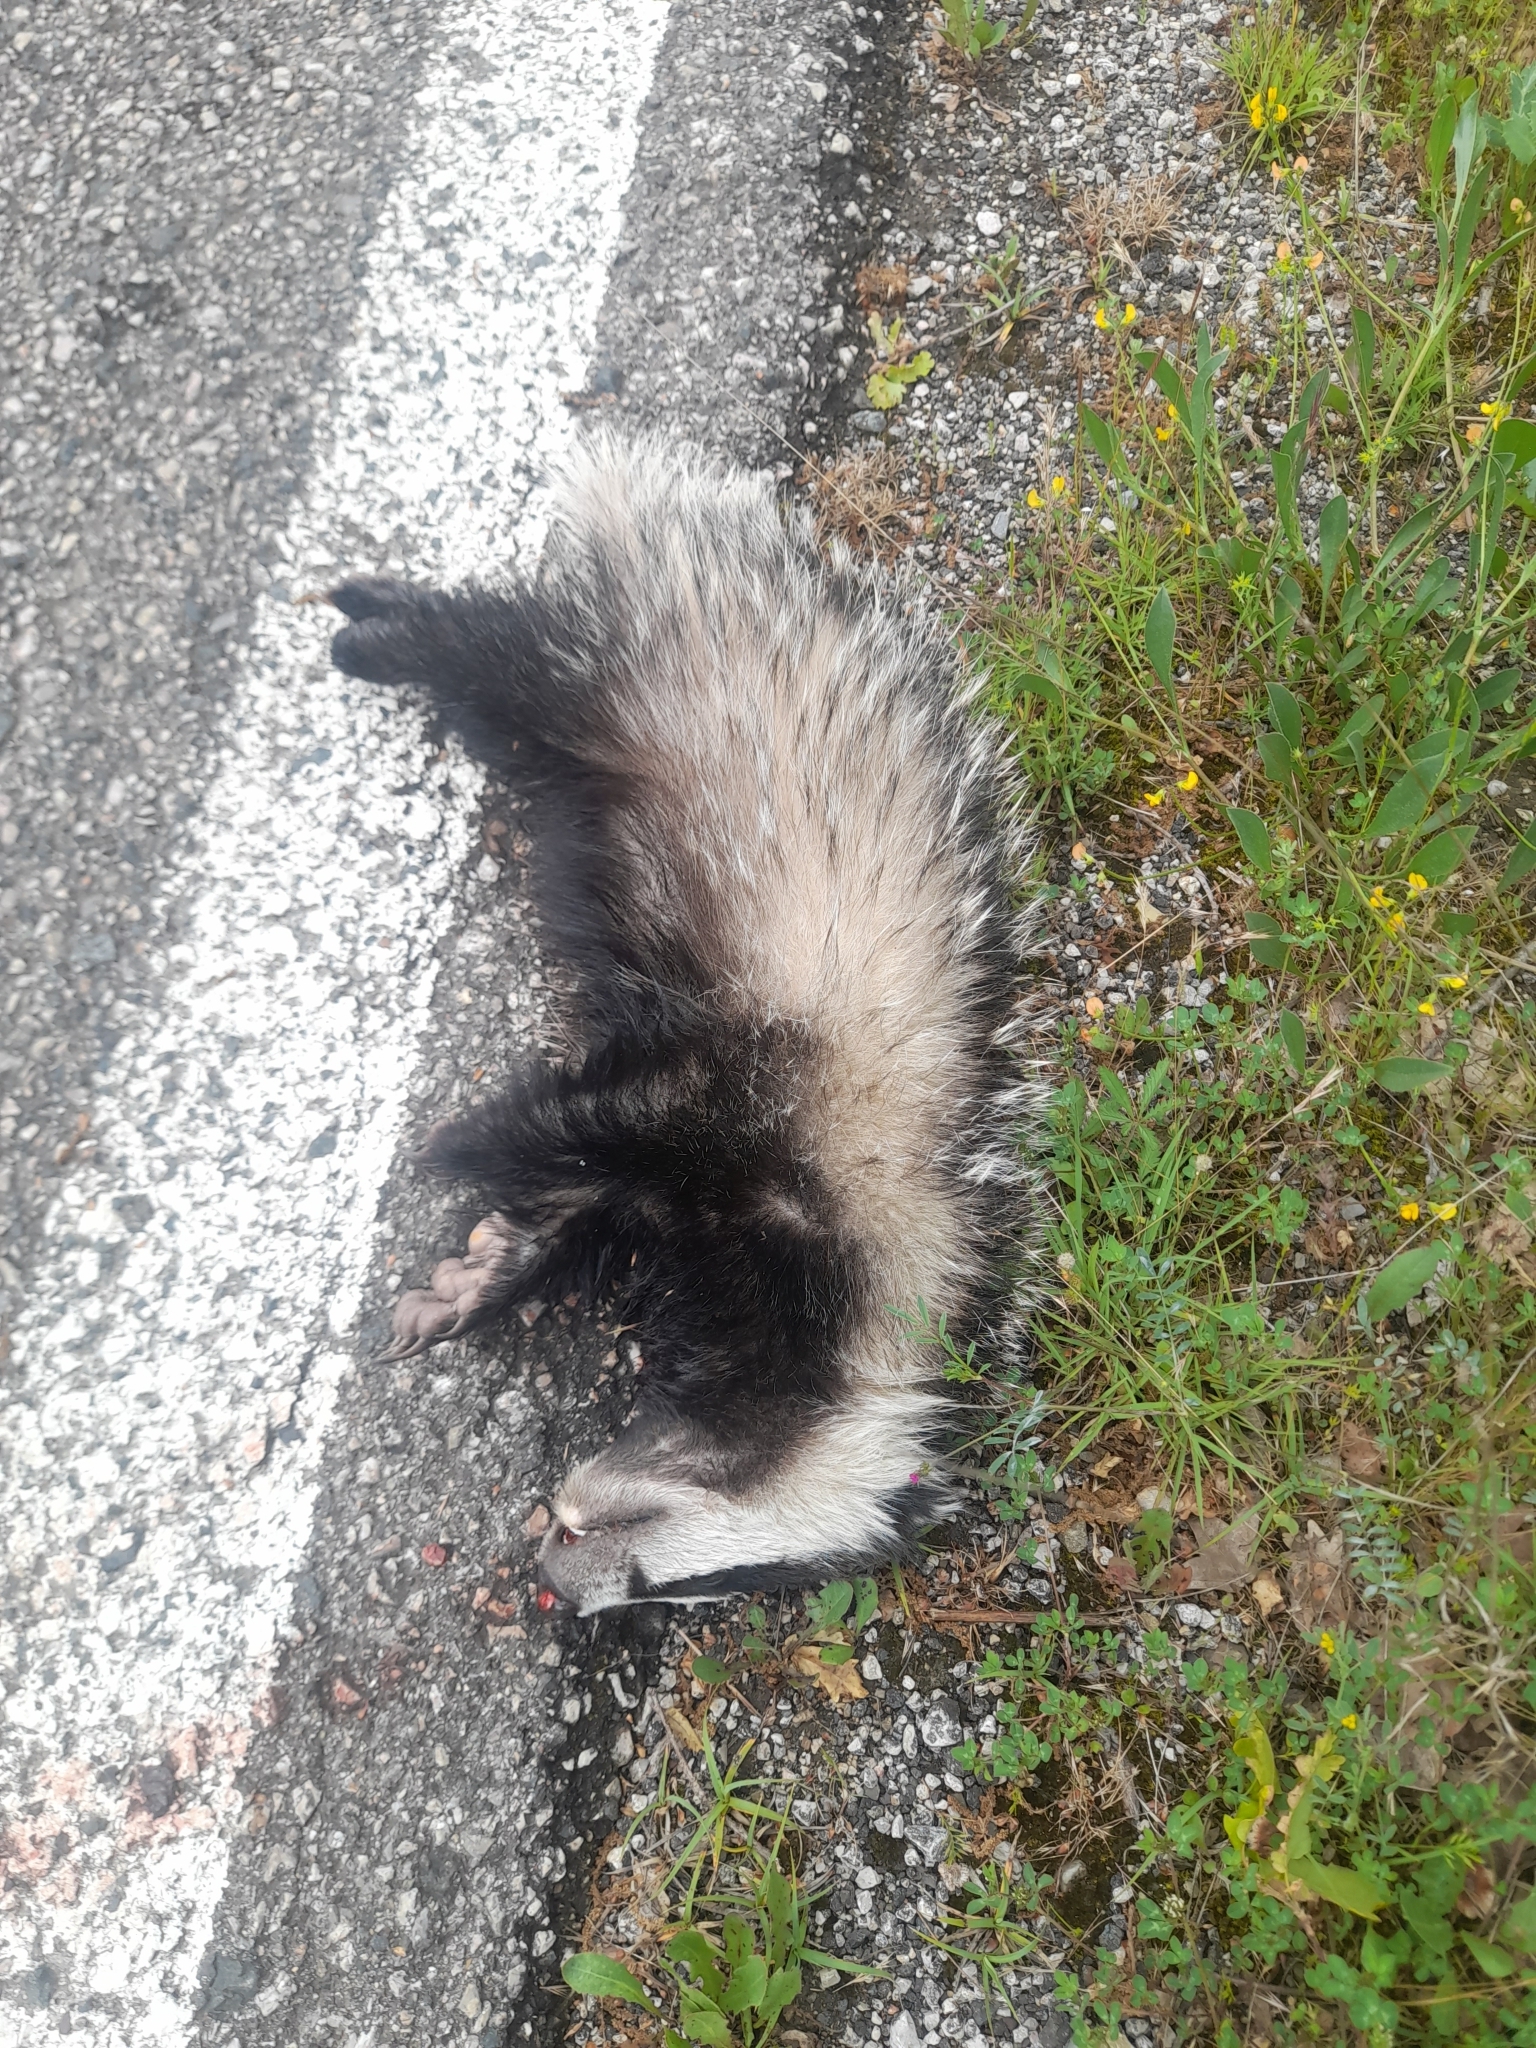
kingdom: Animalia
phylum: Chordata
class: Mammalia
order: Carnivora
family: Mustelidae
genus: Meles
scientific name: Meles meles
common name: Eurasian badger
